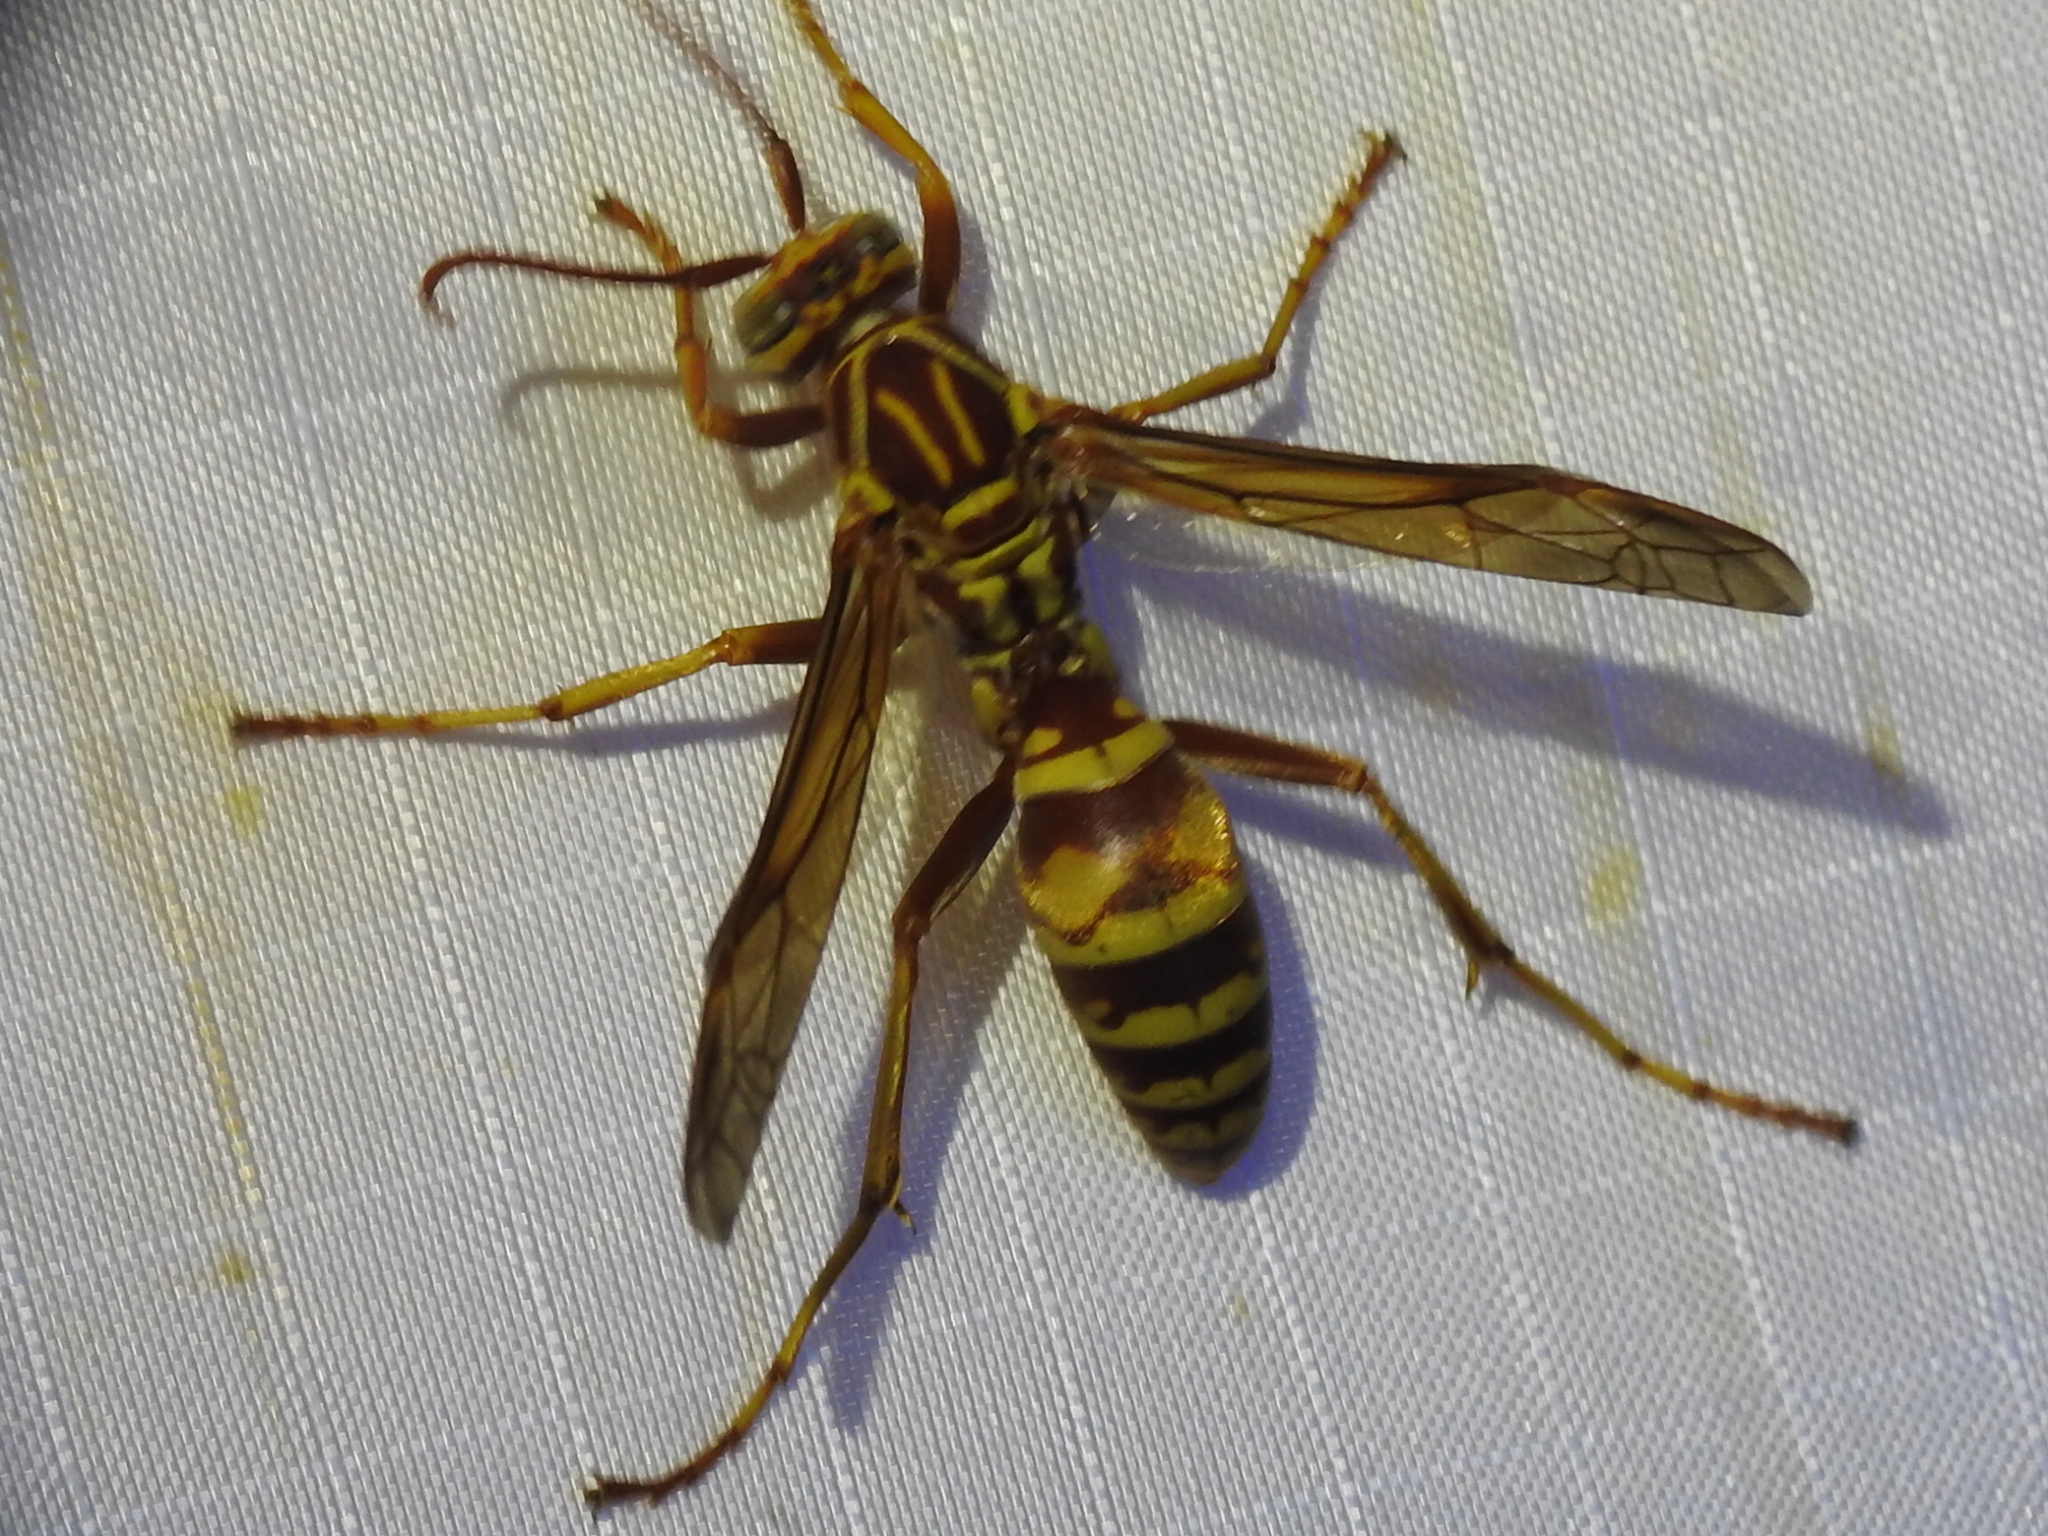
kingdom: Animalia
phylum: Arthropoda
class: Insecta
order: Hymenoptera
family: Eumenidae
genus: Polistes
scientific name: Polistes apachus
